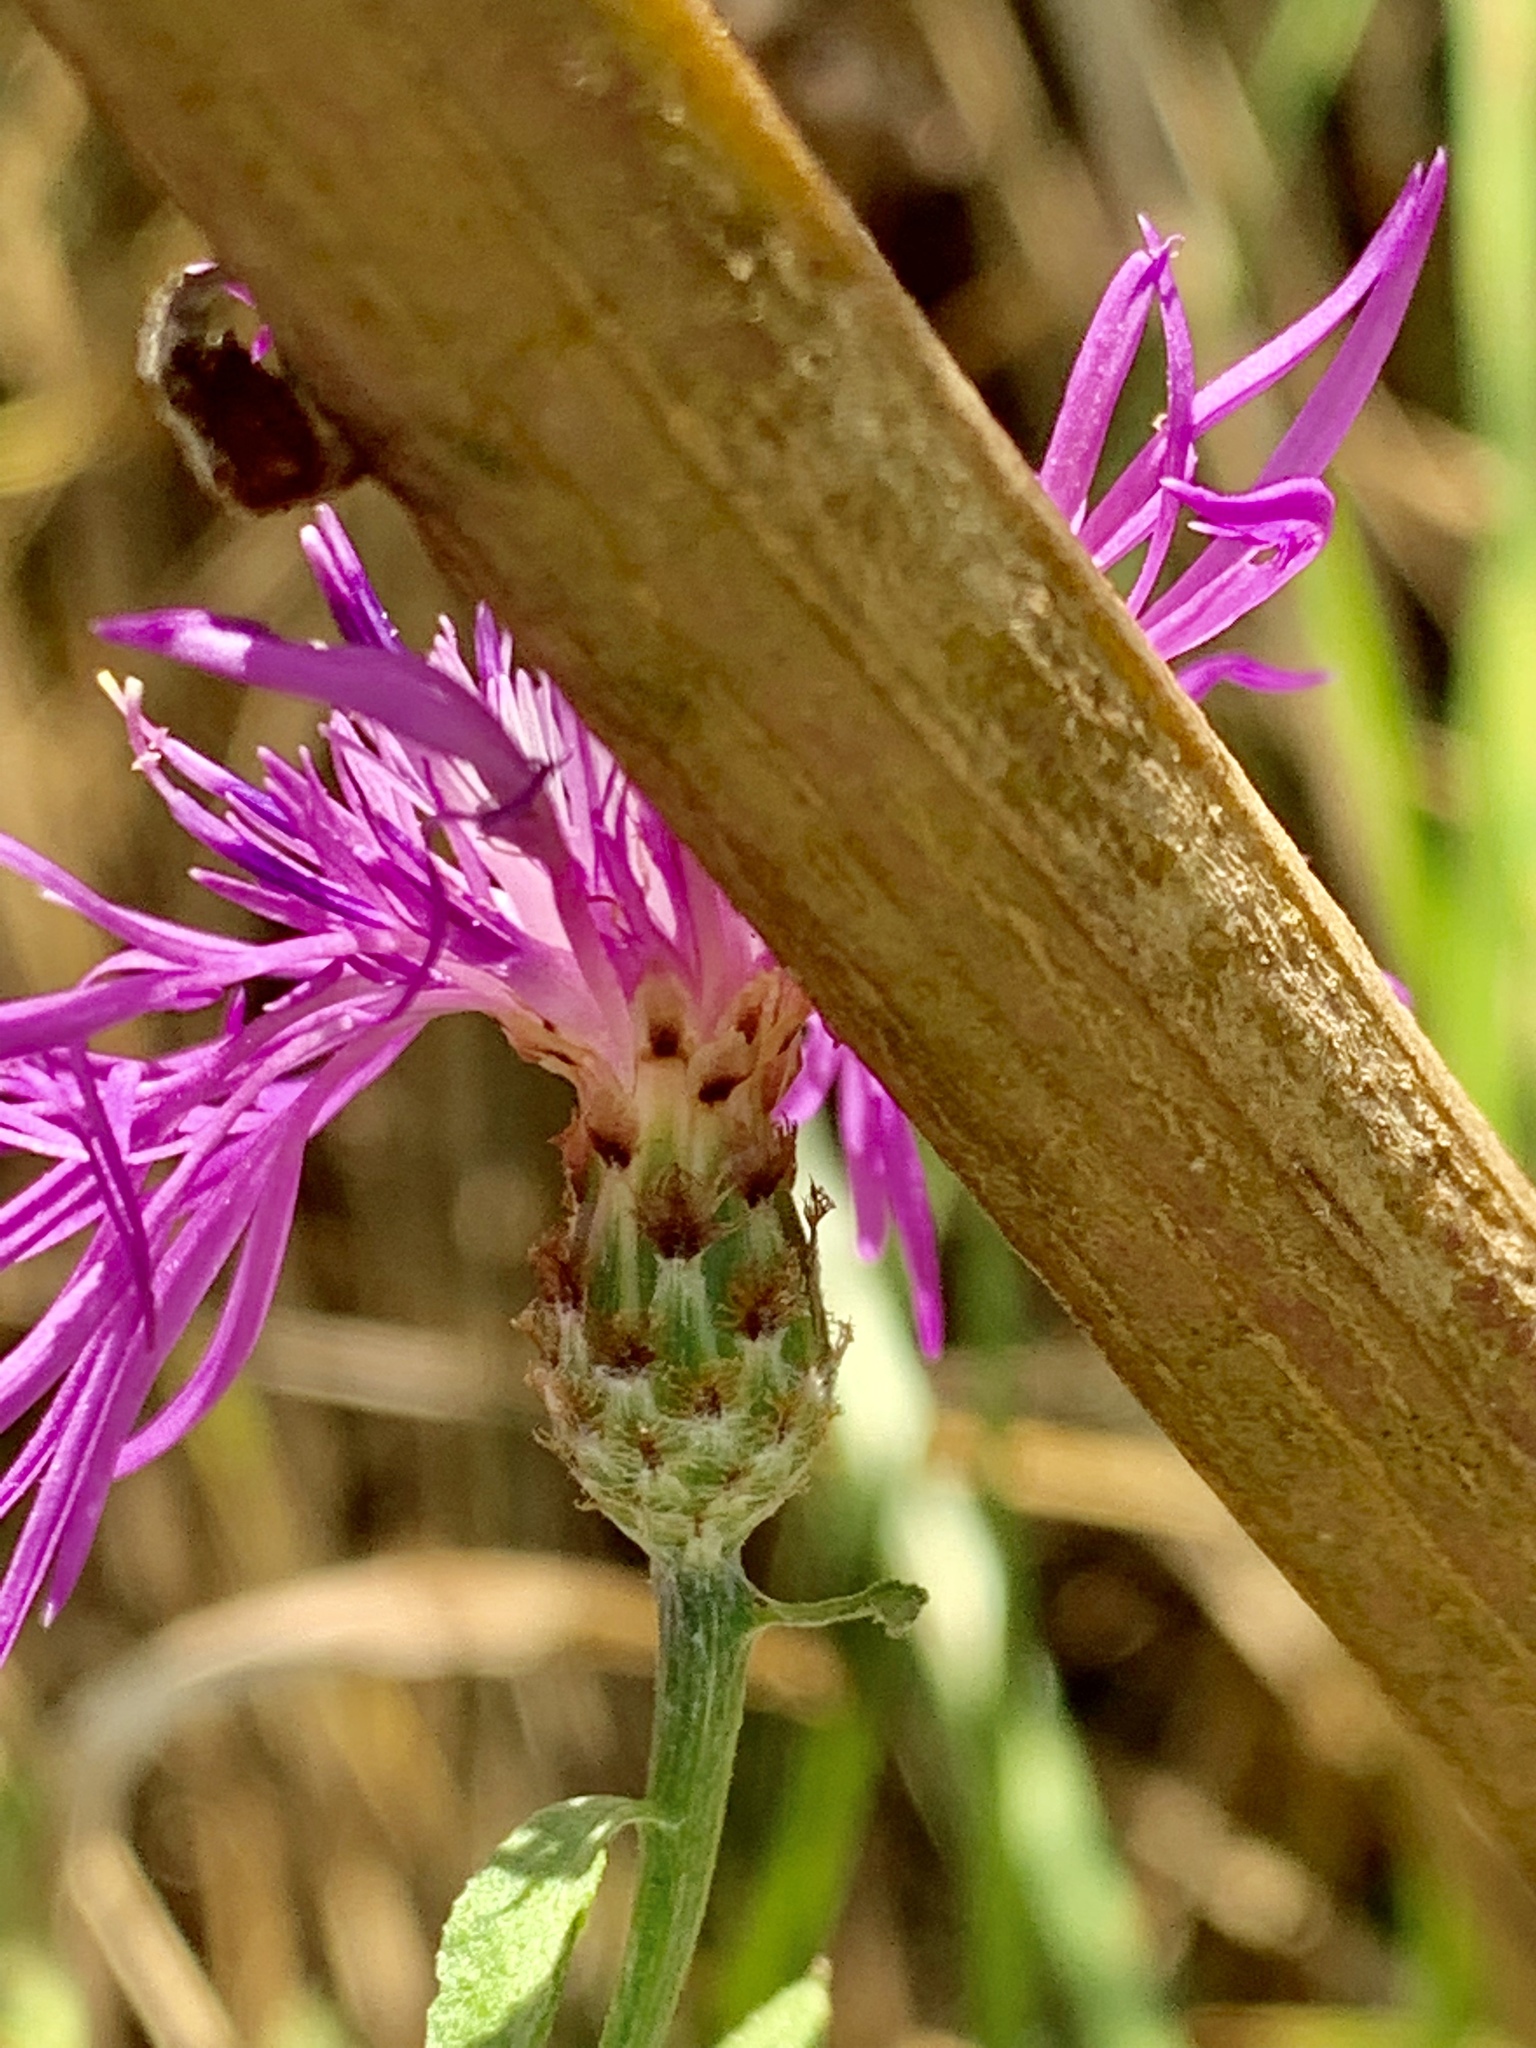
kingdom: Plantae
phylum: Tracheophyta
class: Magnoliopsida
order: Asterales
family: Asteraceae
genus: Centaurea
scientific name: Centaurea nigrescens
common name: Tyrol knapweed
